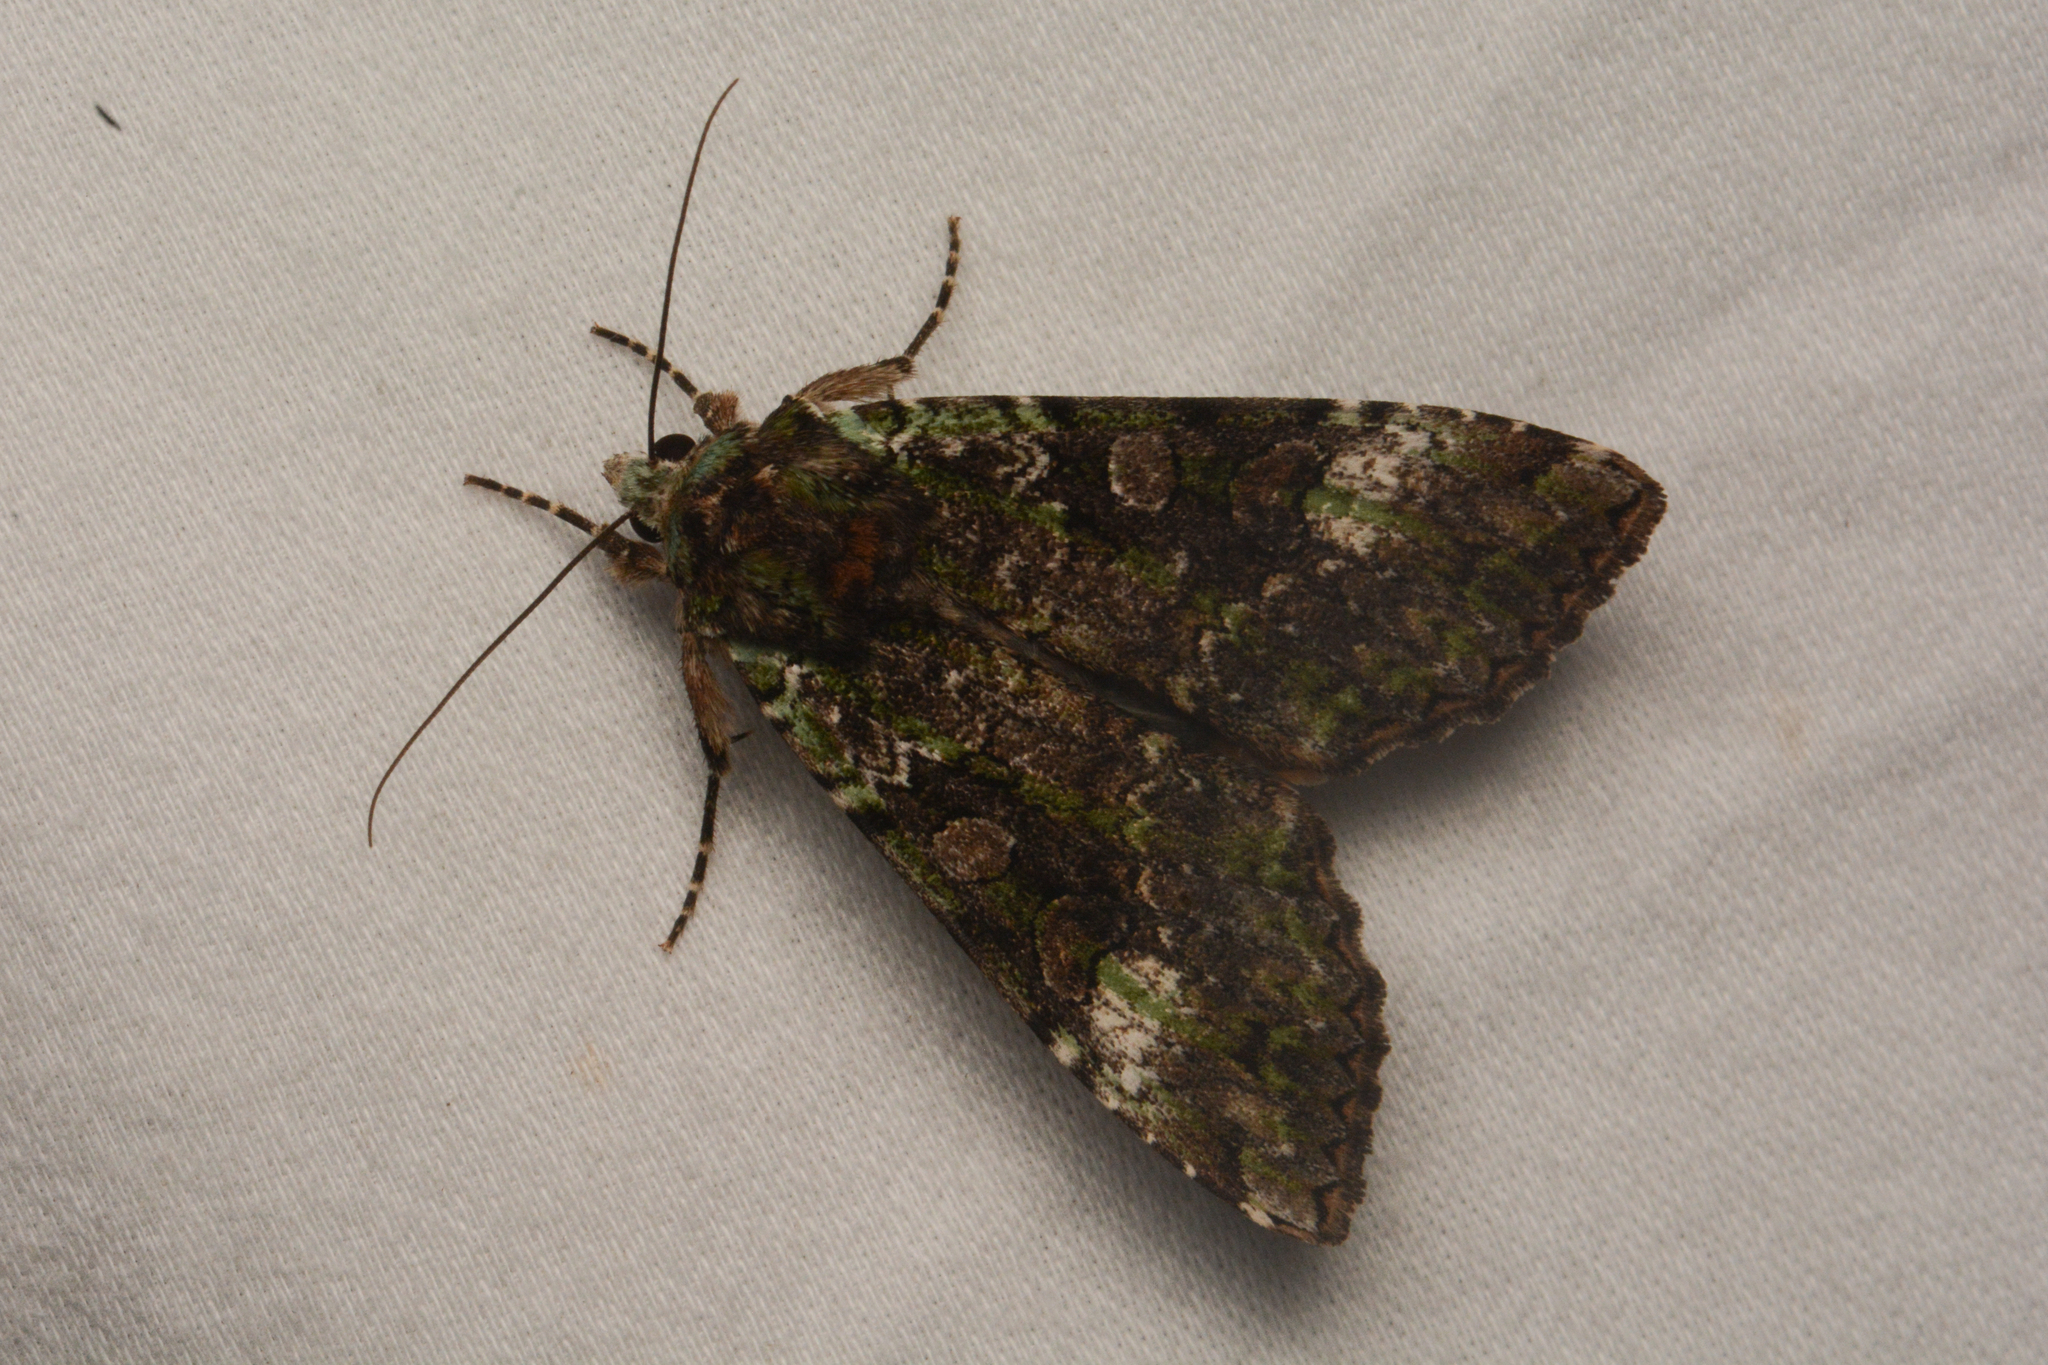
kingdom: Animalia
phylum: Arthropoda
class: Insecta
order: Lepidoptera
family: Noctuidae
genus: Anaplectoides
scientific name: Anaplectoides prasina
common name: Green arches
